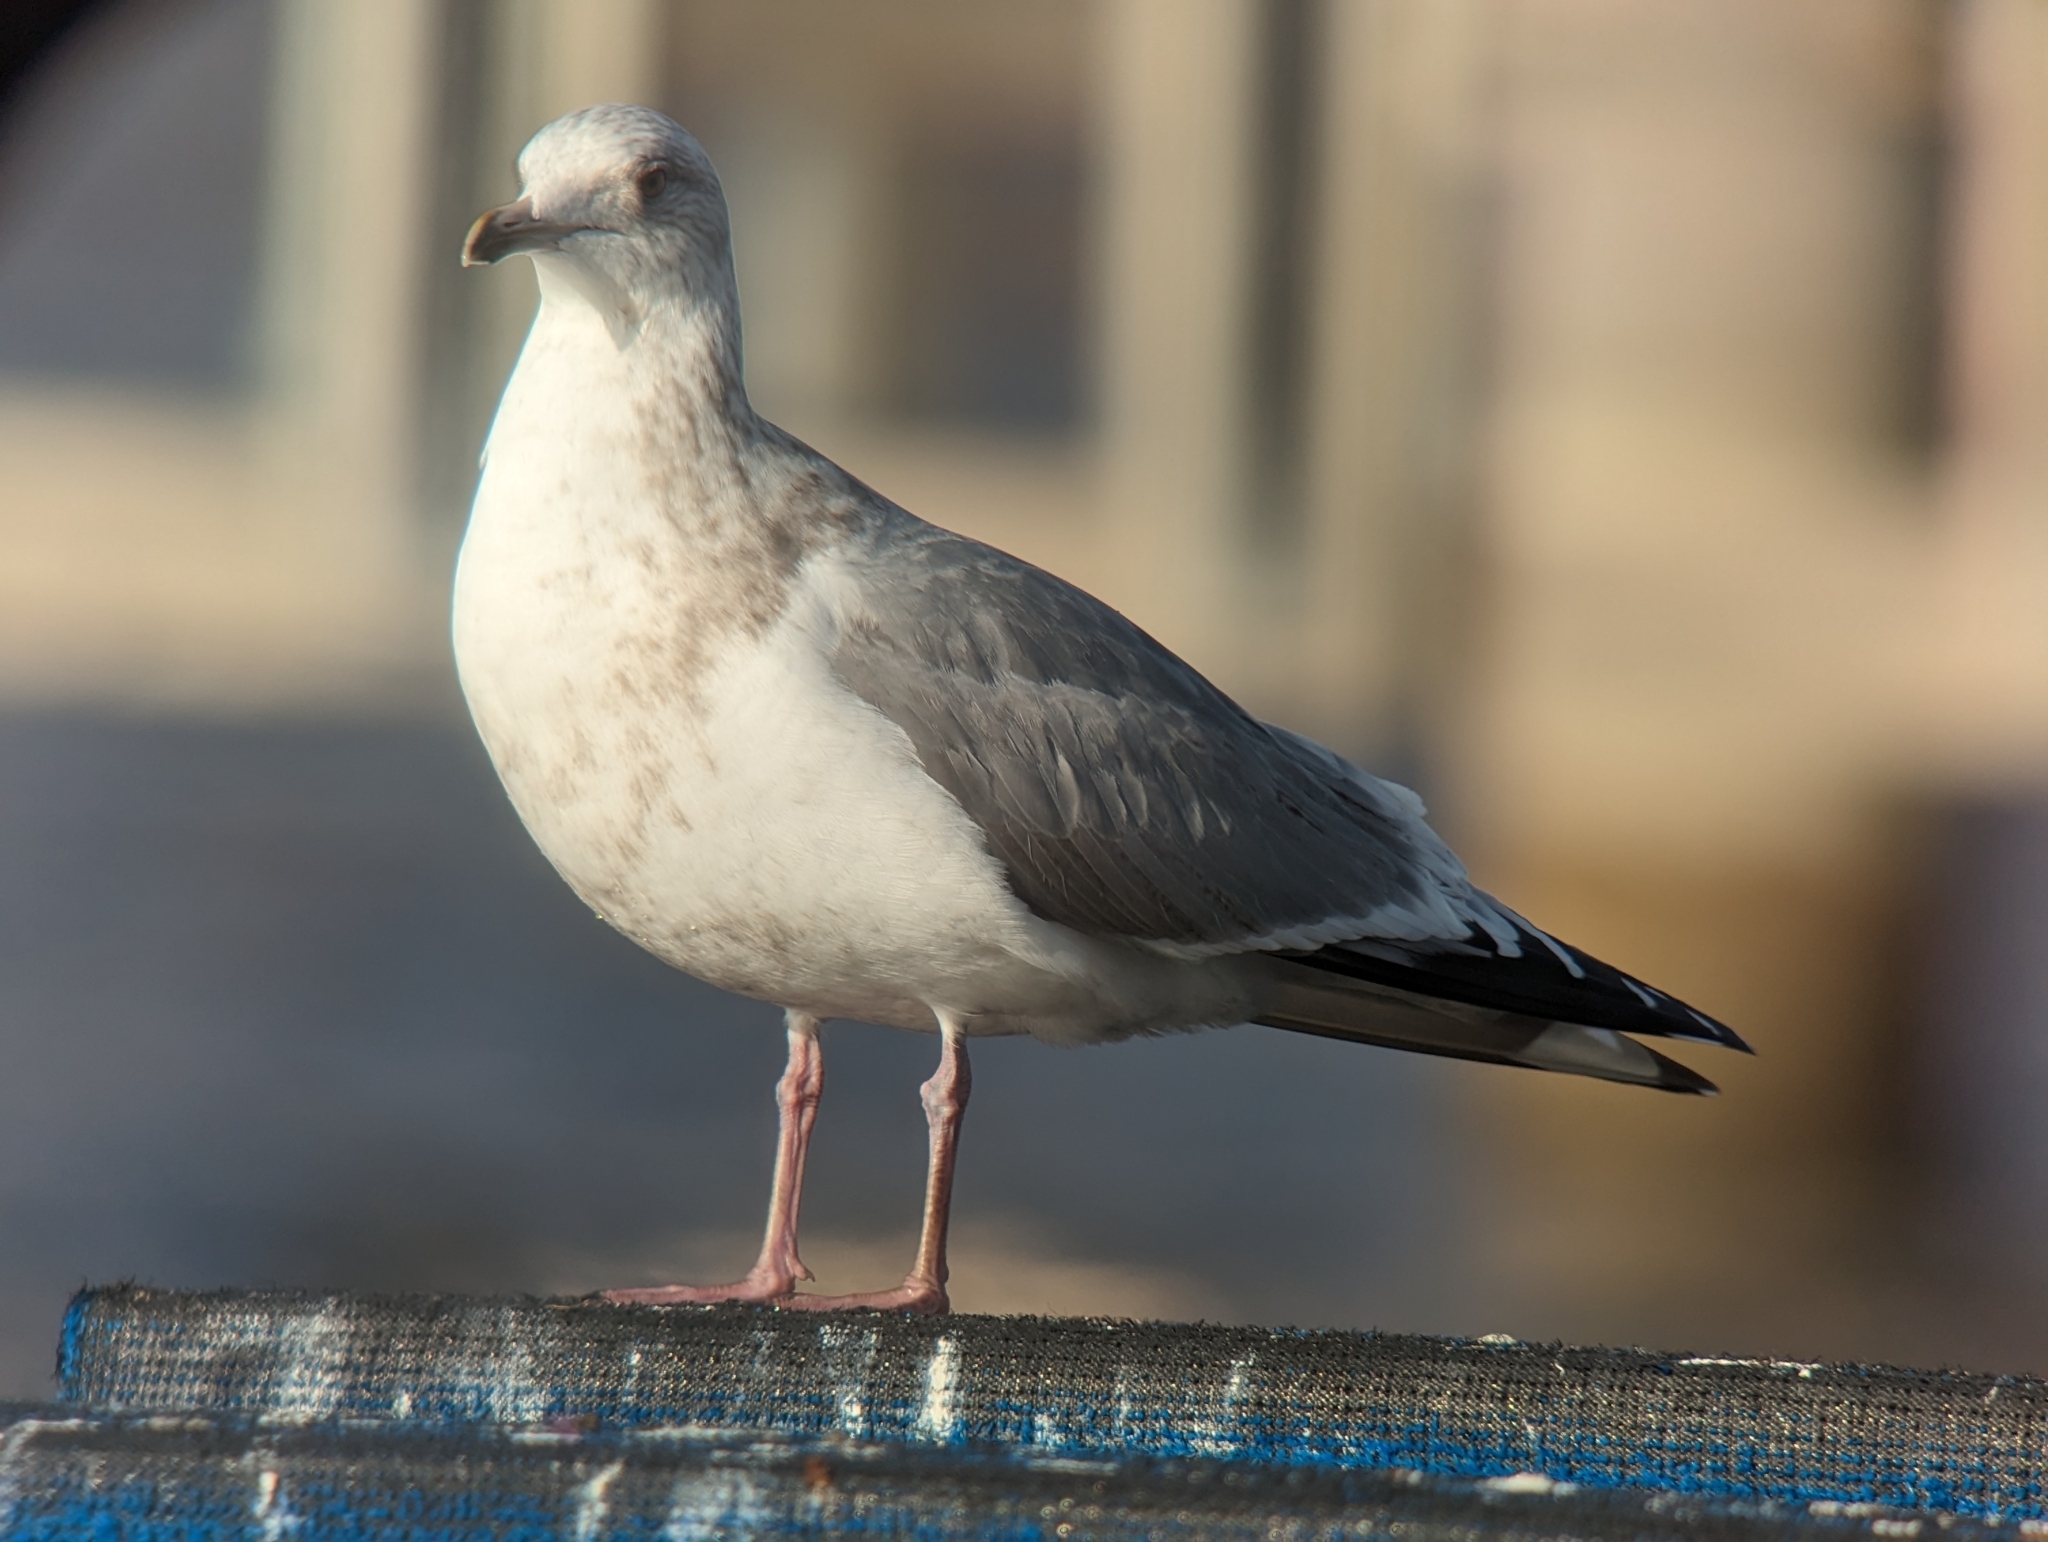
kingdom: Animalia
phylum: Chordata
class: Aves
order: Charadriiformes
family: Laridae
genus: Larus
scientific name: Larus glaucoides
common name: Iceland gull
